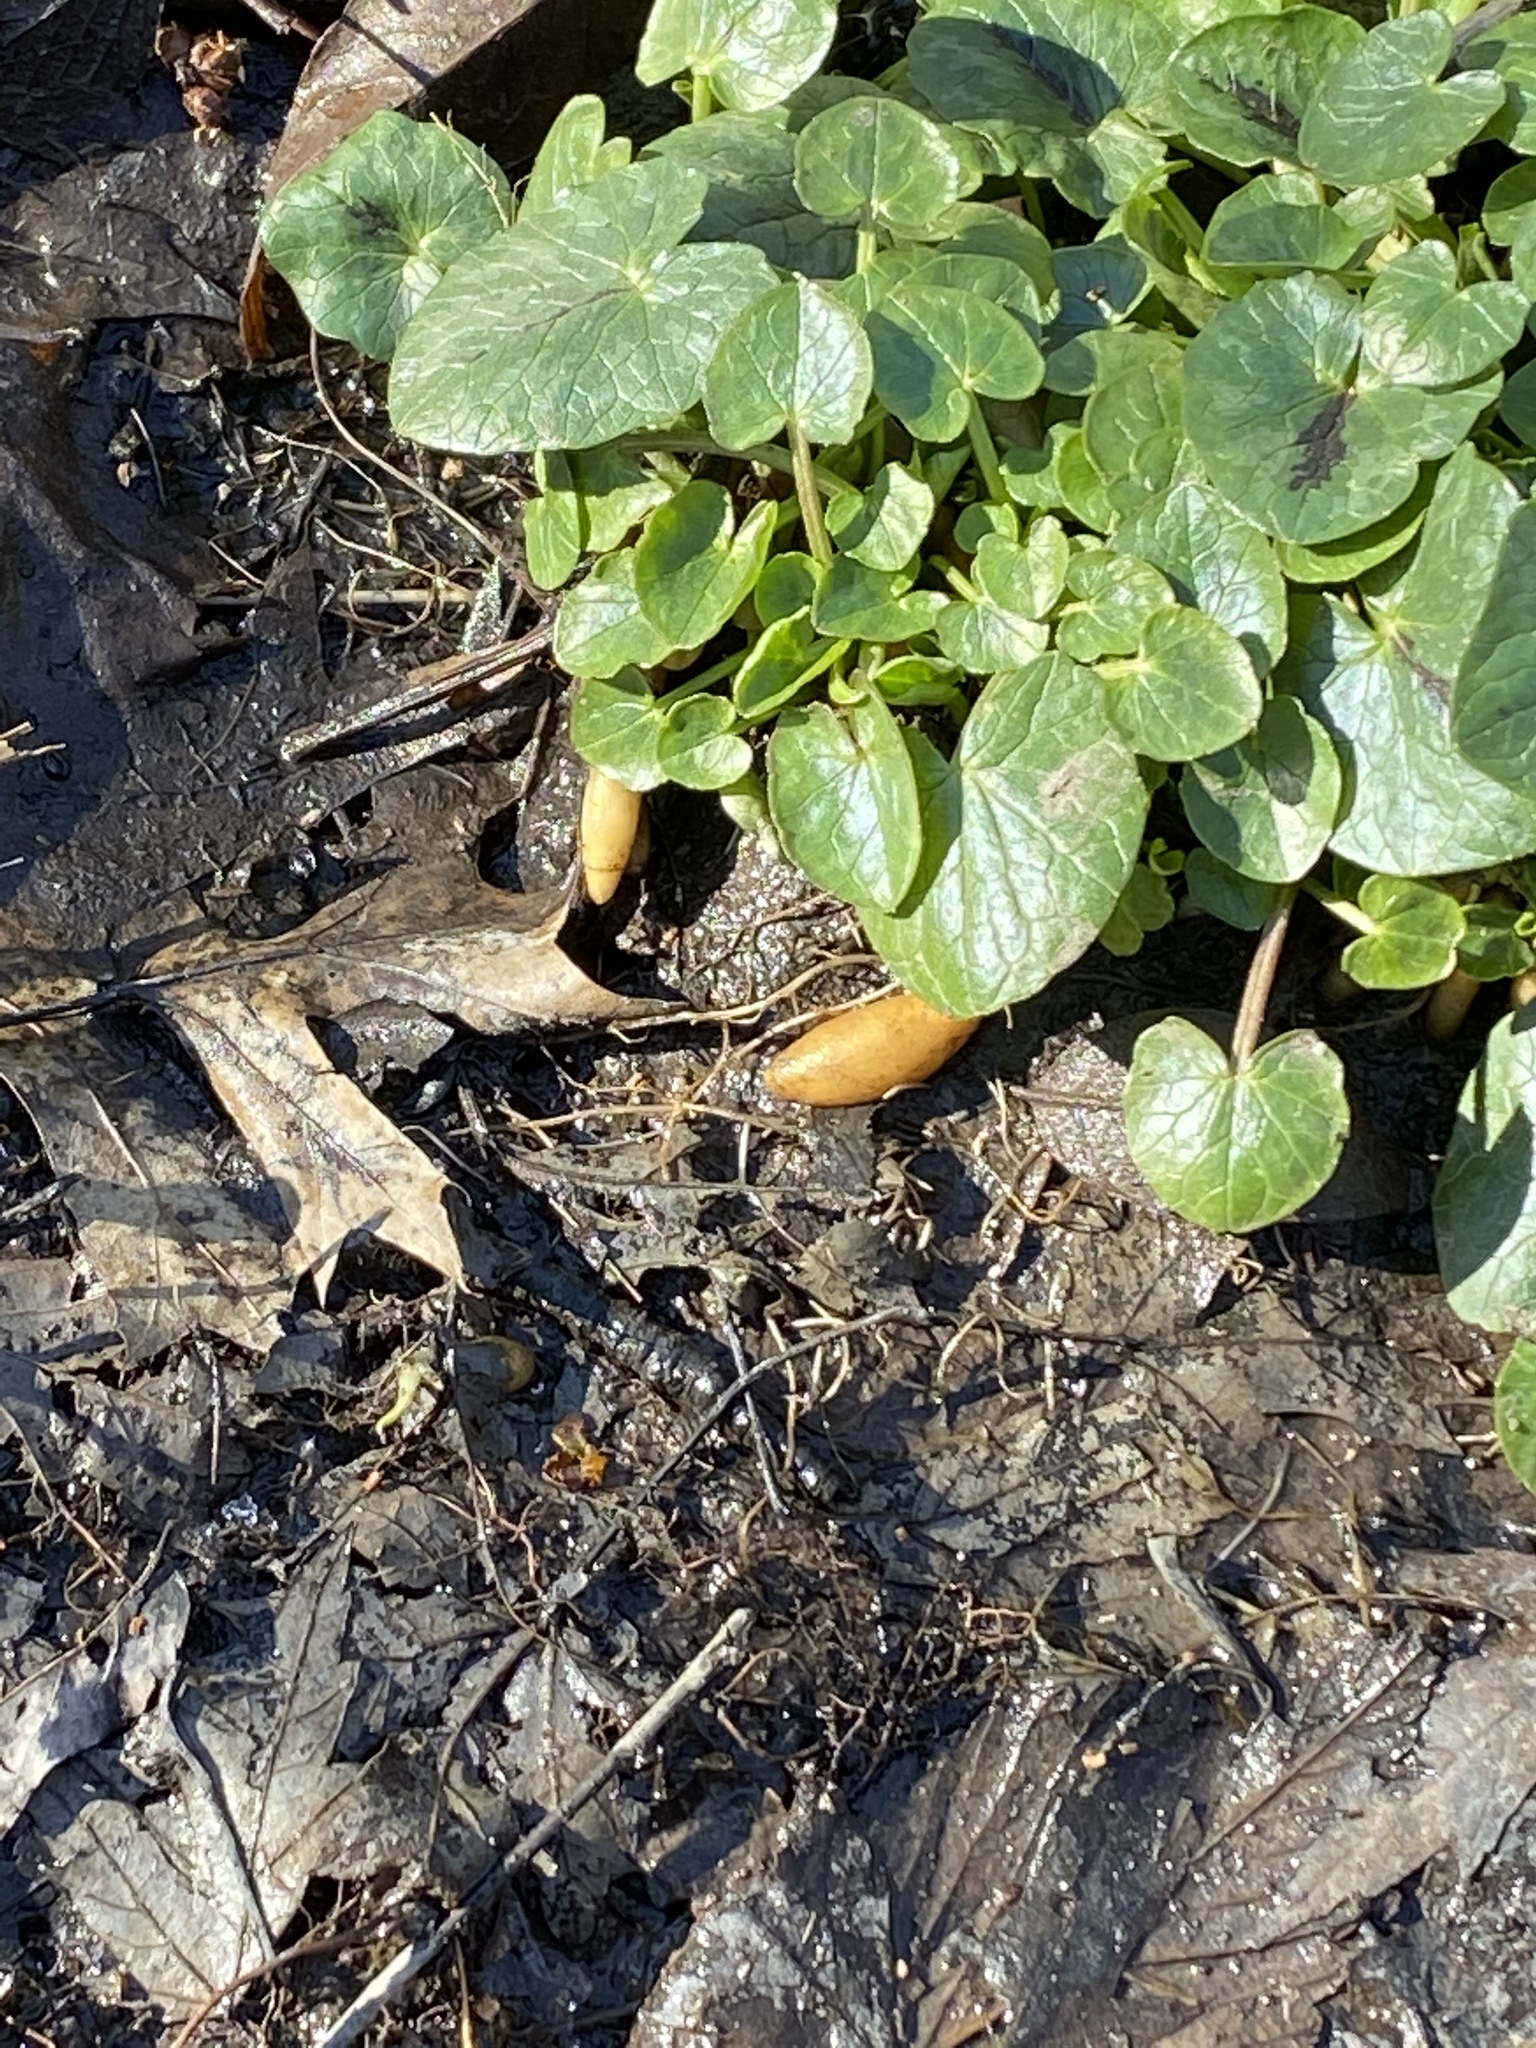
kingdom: Plantae
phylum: Tracheophyta
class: Magnoliopsida
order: Ranunculales
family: Ranunculaceae
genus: Ficaria
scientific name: Ficaria verna
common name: Lesser celandine
